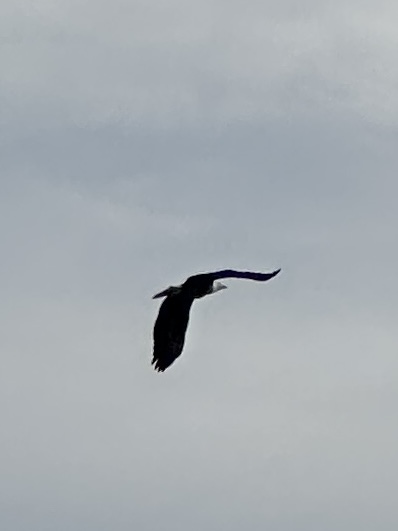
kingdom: Animalia
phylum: Chordata
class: Aves
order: Accipitriformes
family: Accipitridae
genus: Haliaeetus
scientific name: Haliaeetus leucocephalus
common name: Bald eagle
